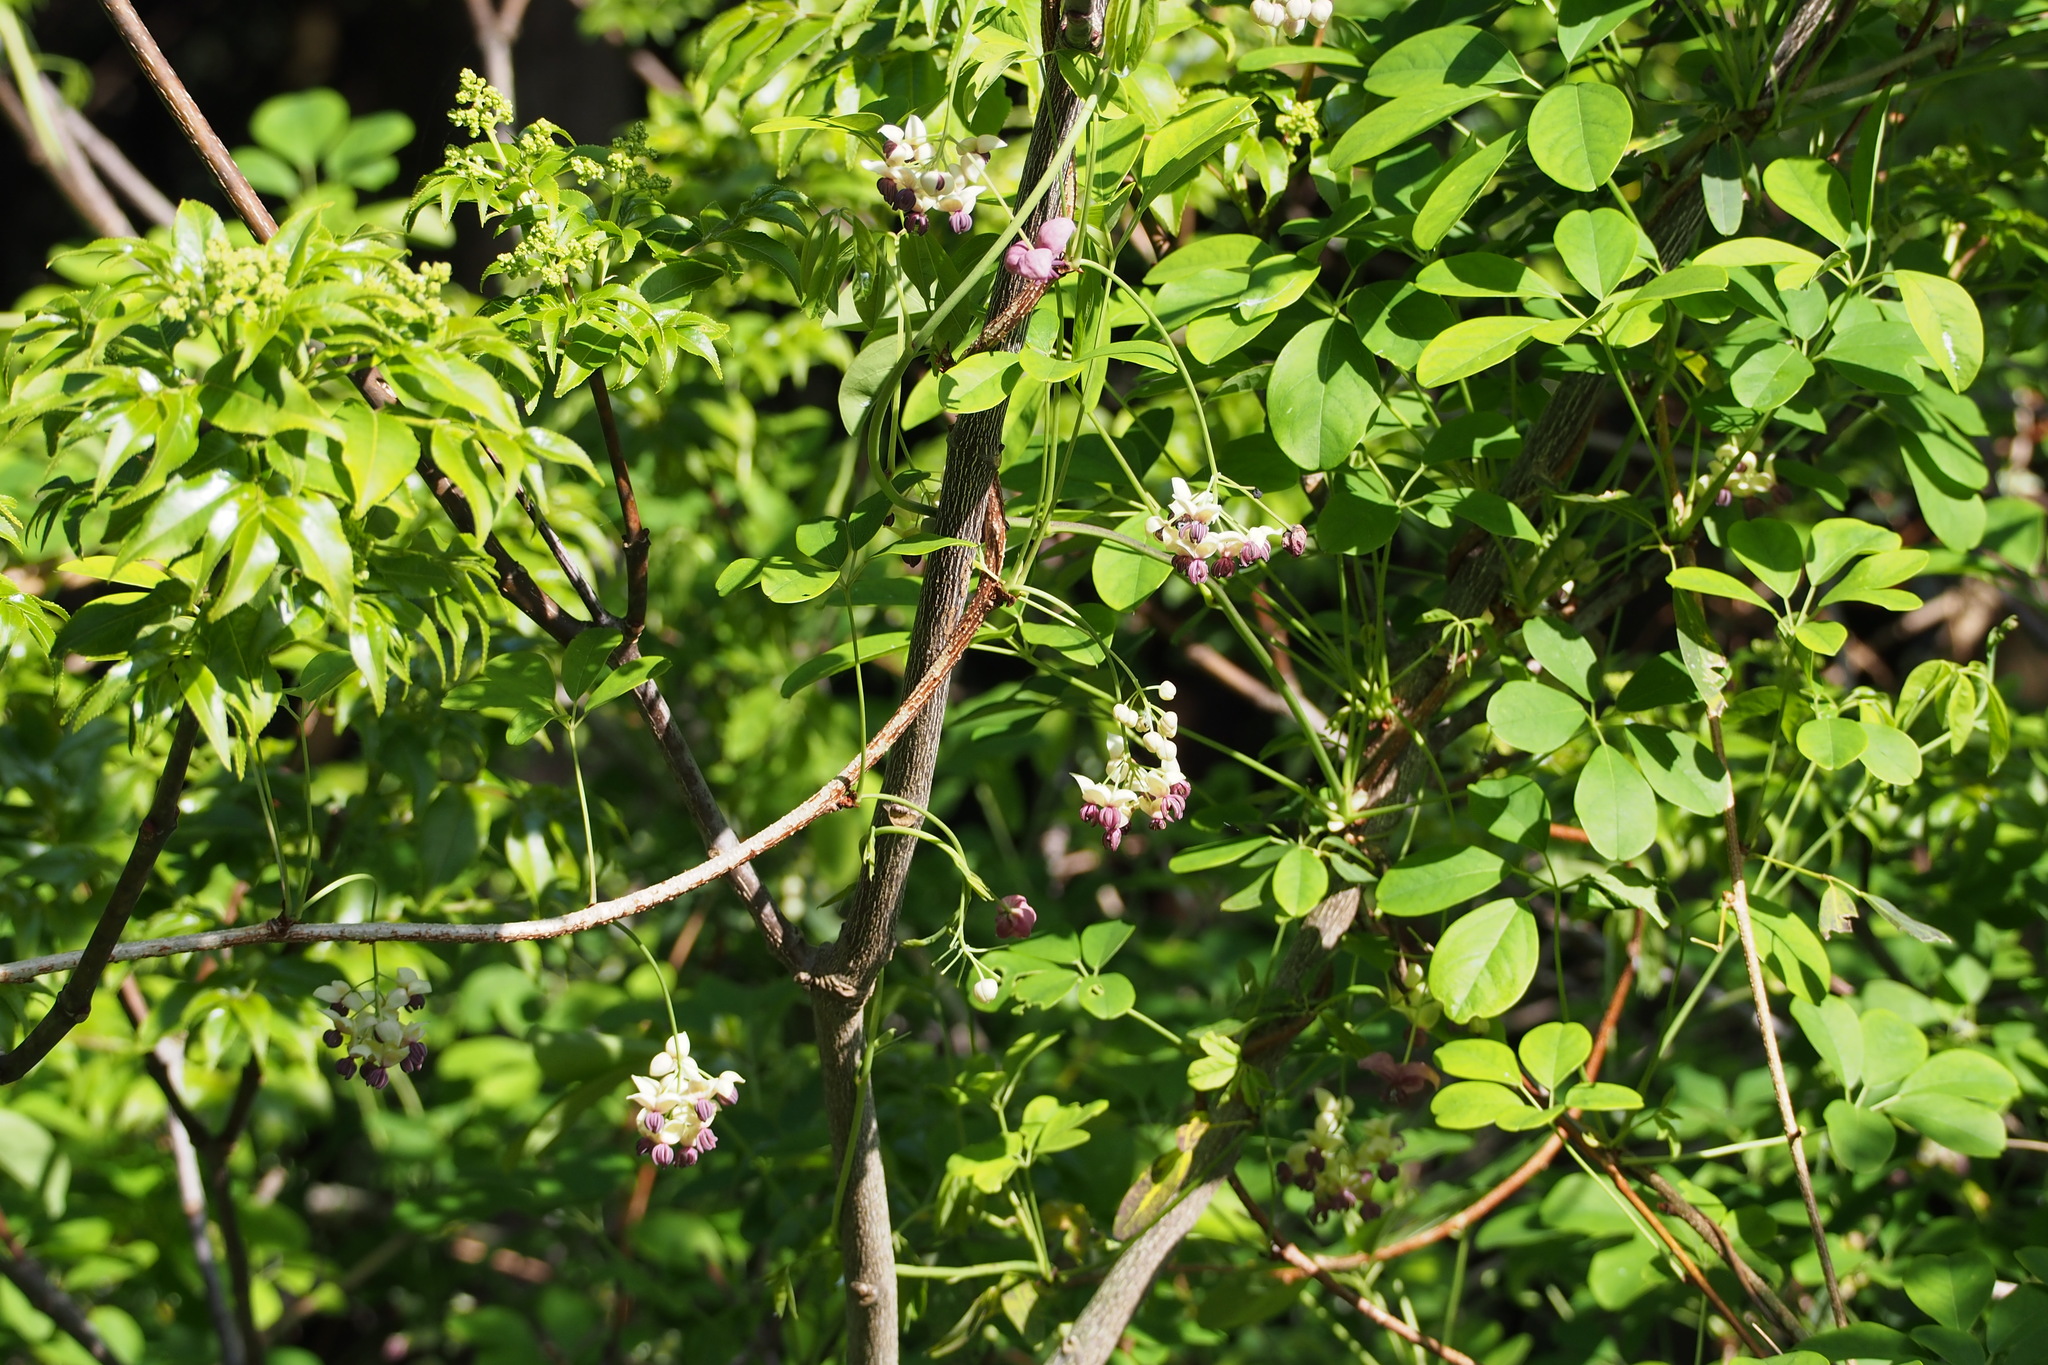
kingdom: Plantae
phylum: Tracheophyta
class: Magnoliopsida
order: Ranunculales
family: Lardizabalaceae
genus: Akebia
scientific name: Akebia quinata
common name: Five-leaf akebia
